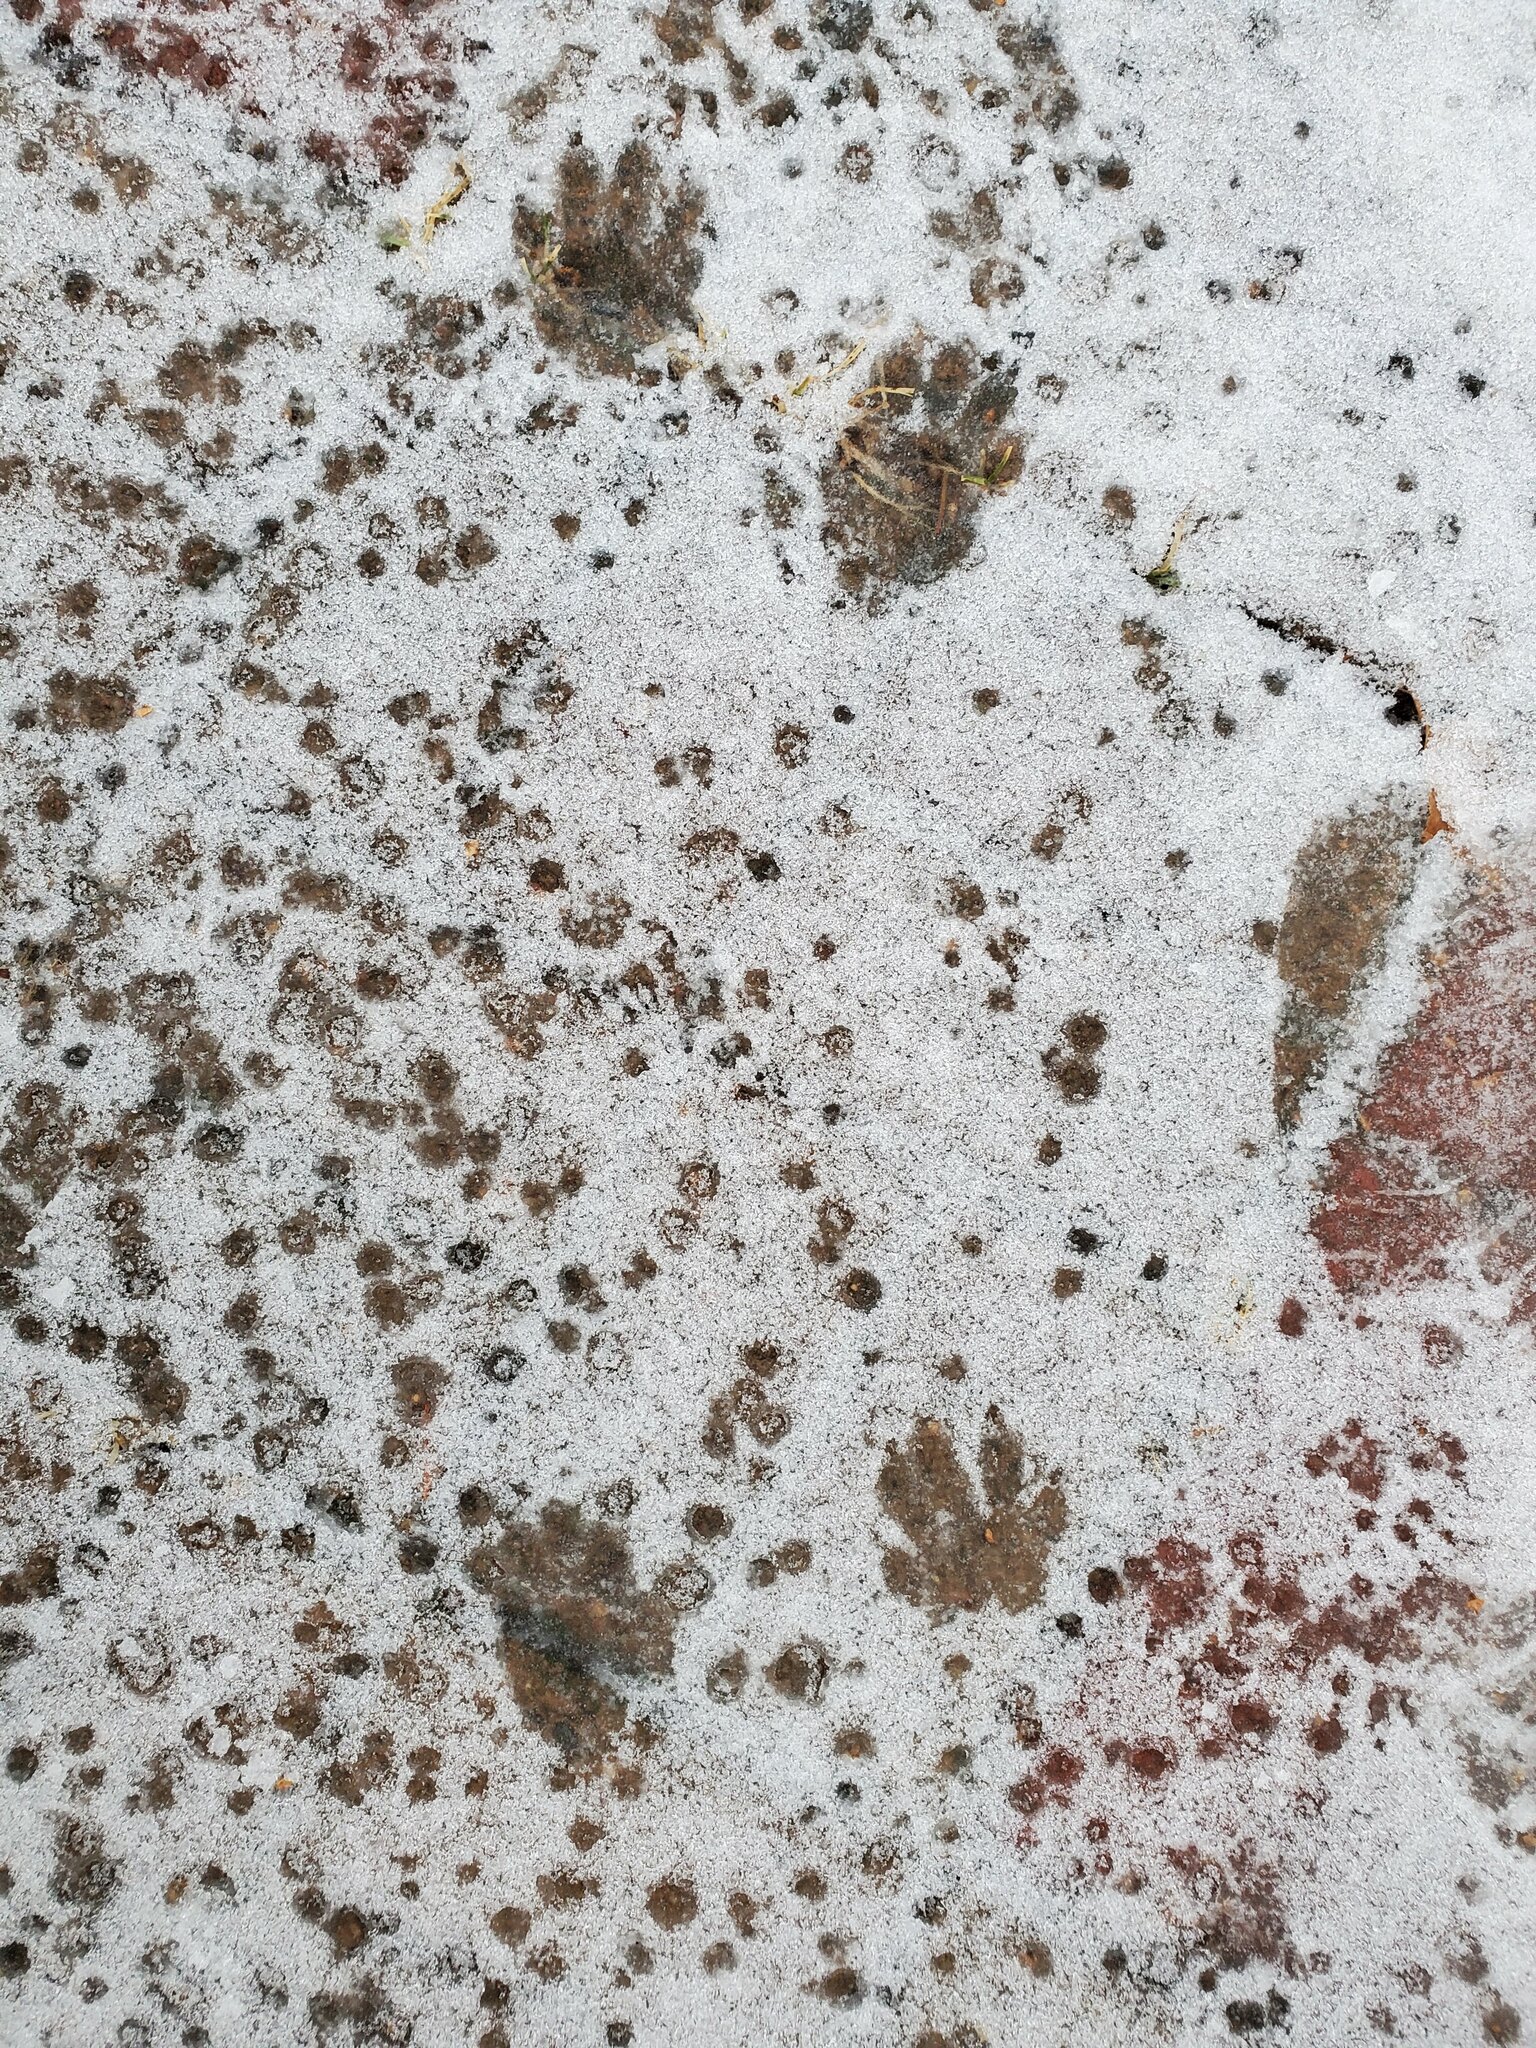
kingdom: Animalia
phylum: Chordata
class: Mammalia
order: Carnivora
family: Procyonidae
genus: Procyon
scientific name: Procyon lotor
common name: Raccoon
